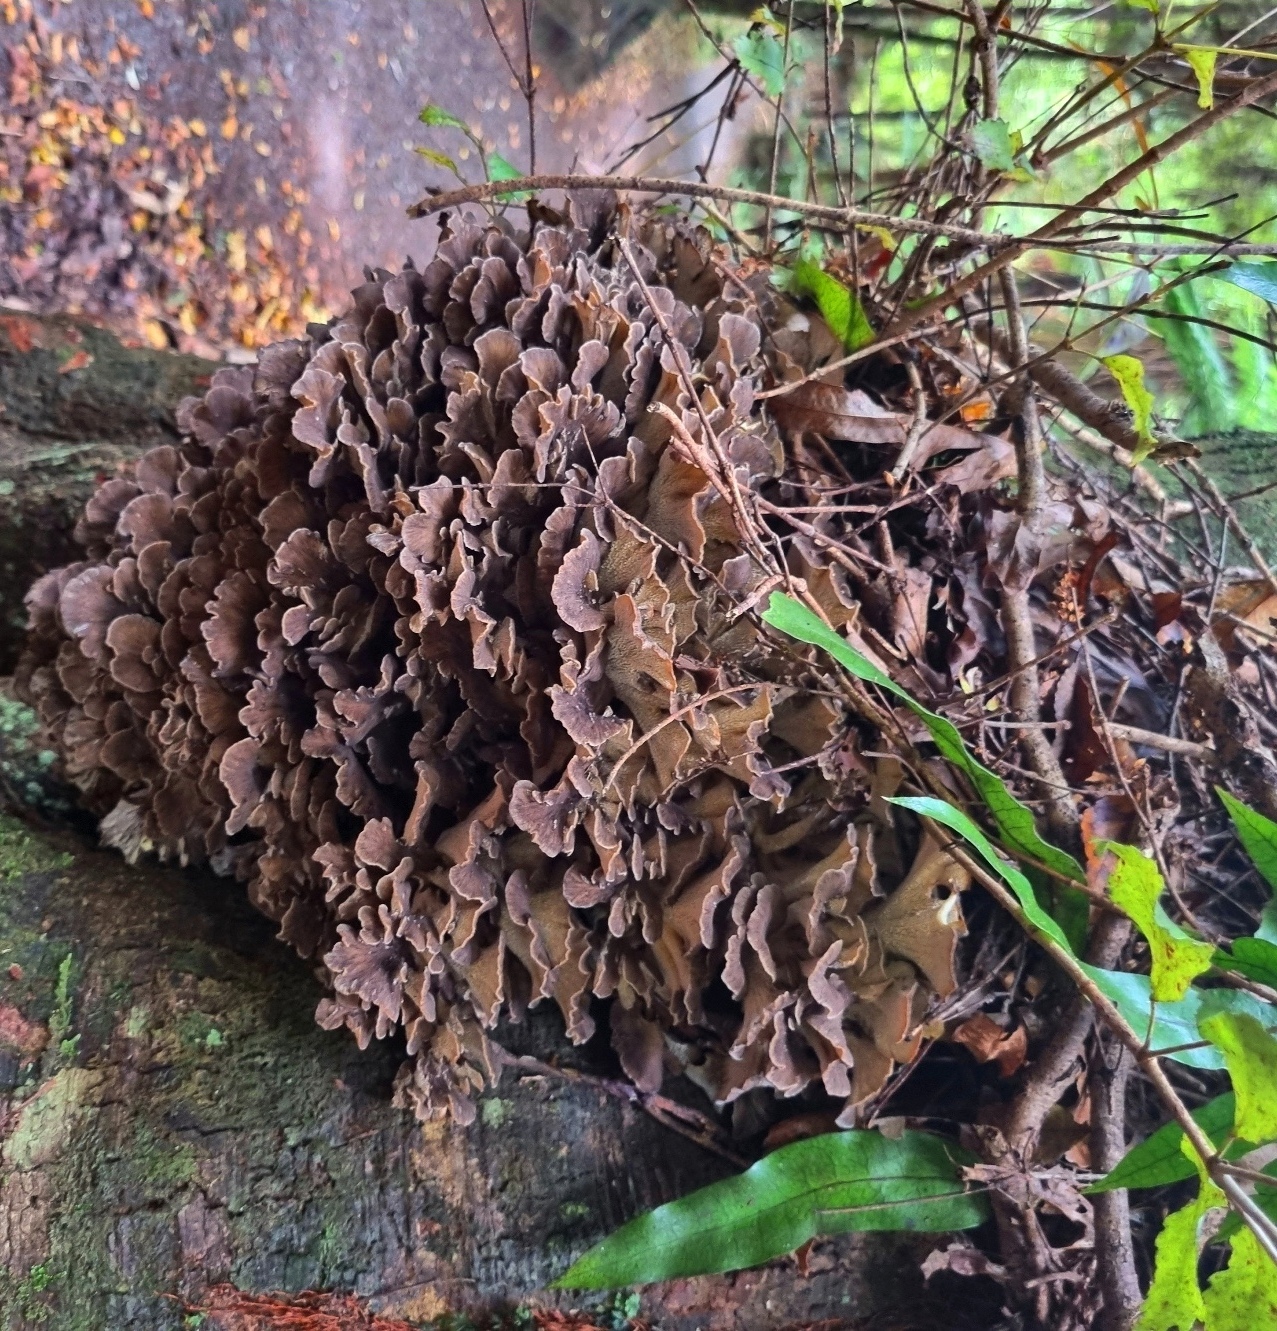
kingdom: Fungi
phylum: Basidiomycota
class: Agaricomycetes
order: Polyporales
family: Grifolaceae
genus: Grifola
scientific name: Grifola colensoi
